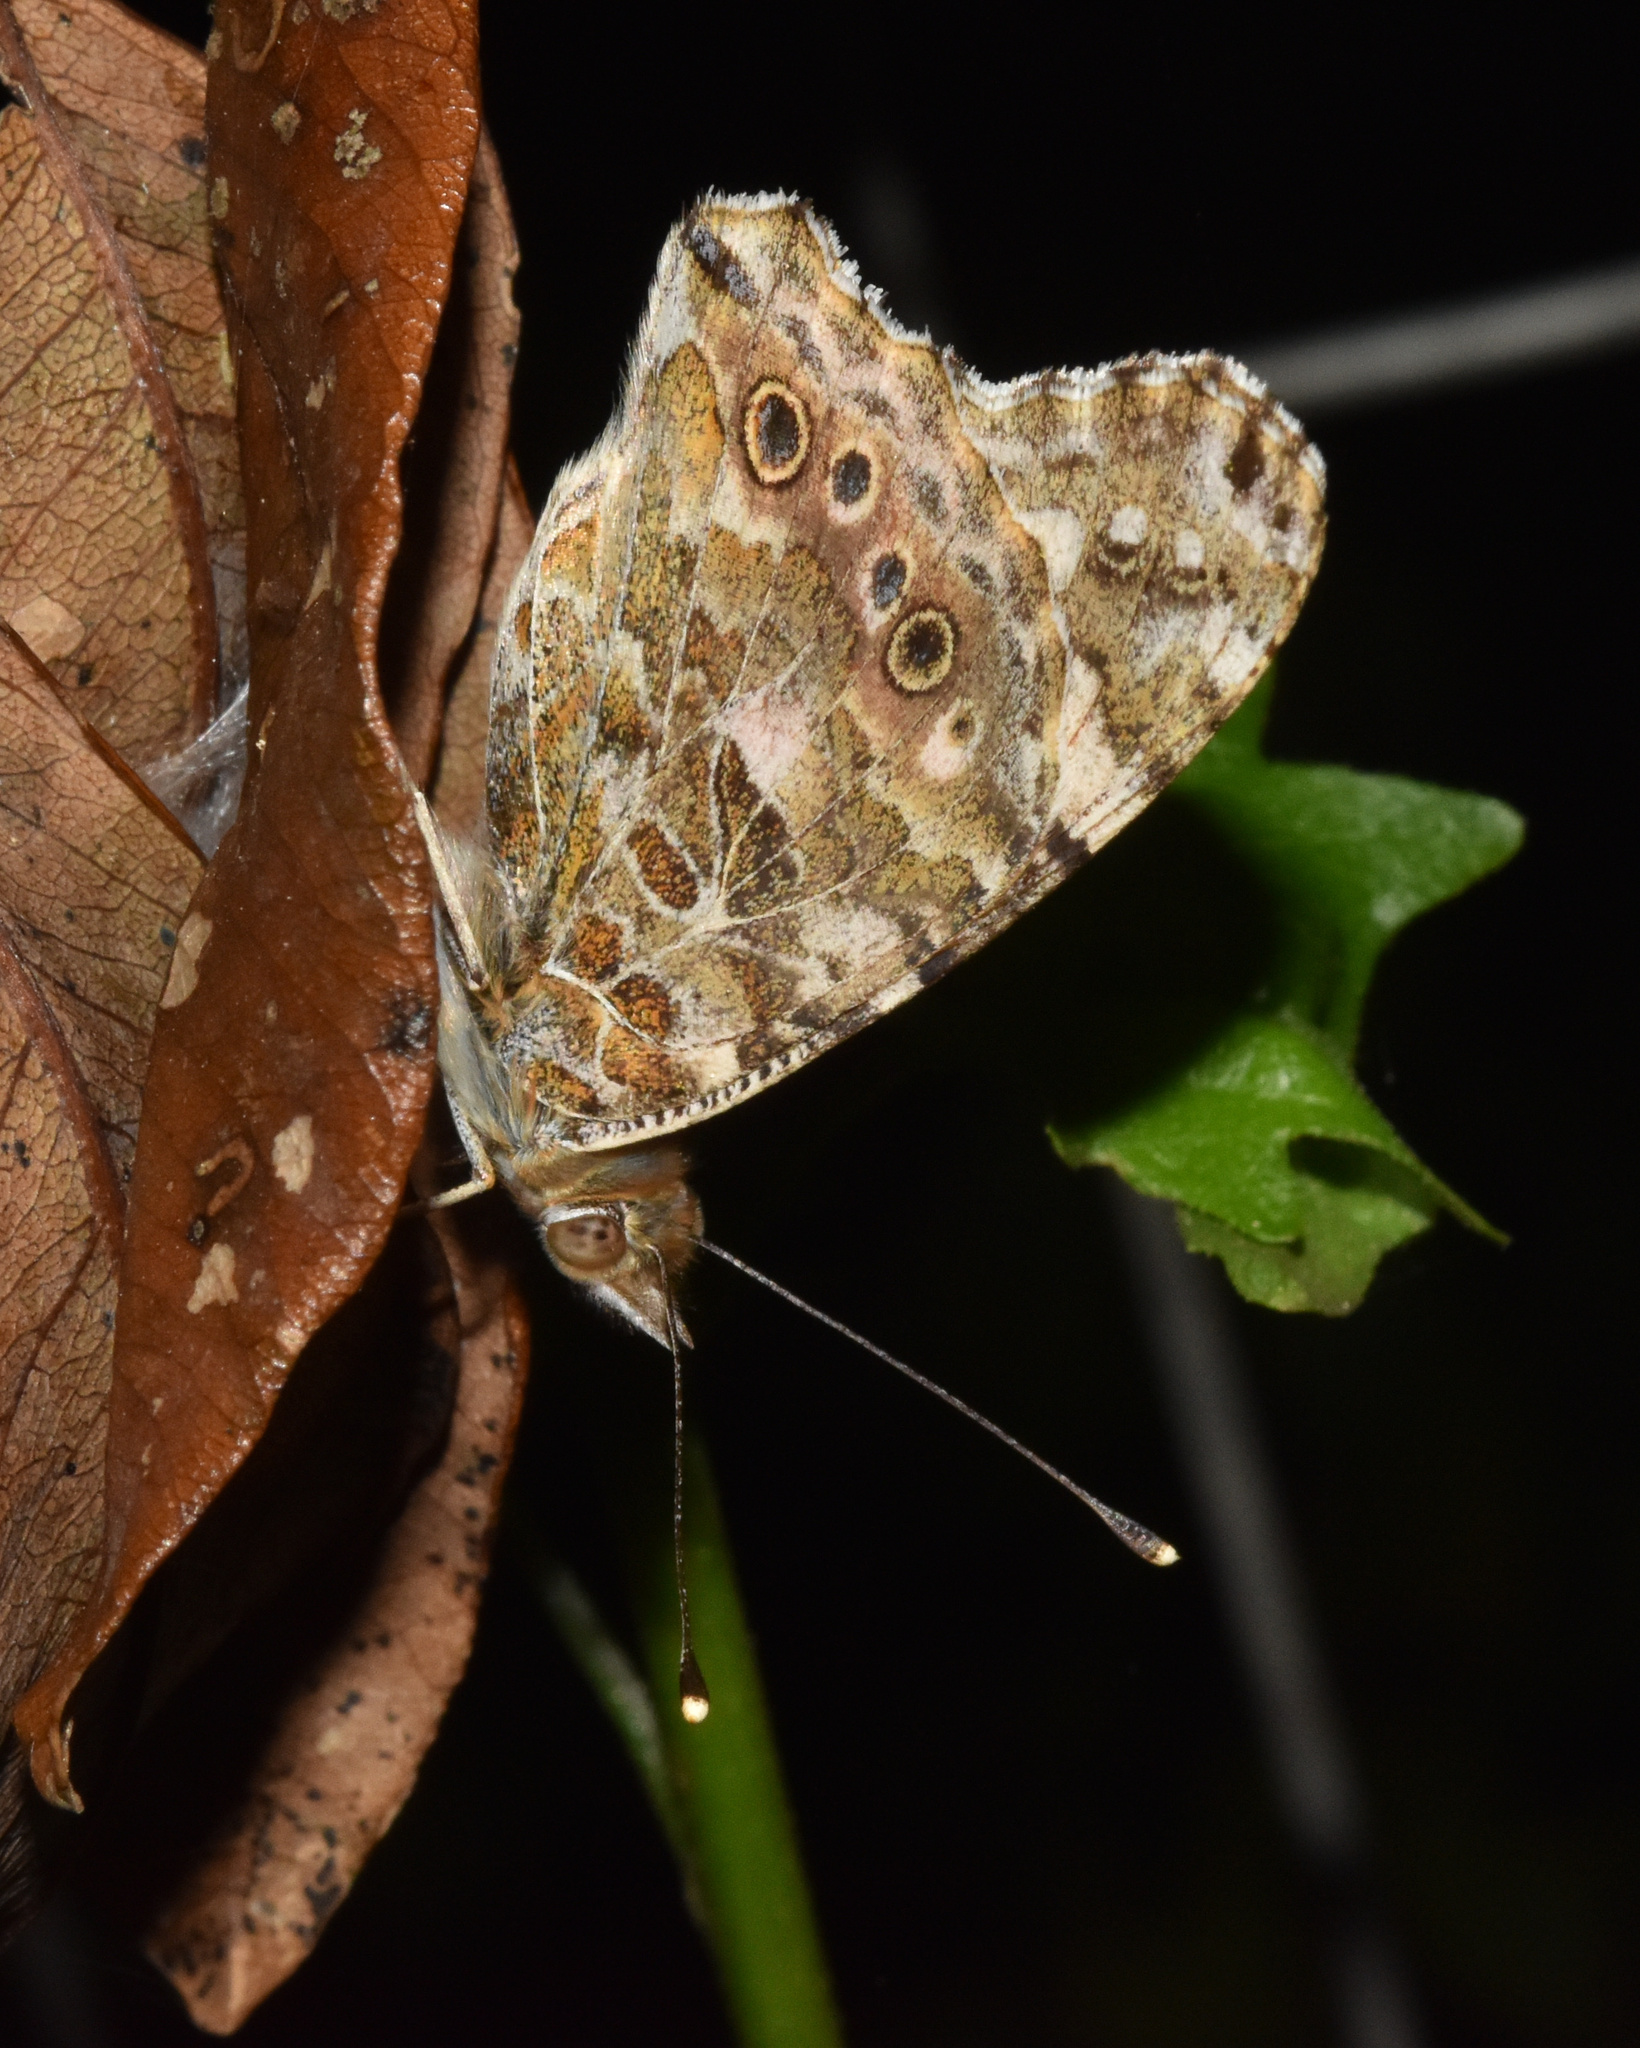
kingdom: Animalia
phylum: Arthropoda
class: Insecta
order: Lepidoptera
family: Nymphalidae
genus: Vanessa
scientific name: Vanessa cardui
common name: Painted lady
